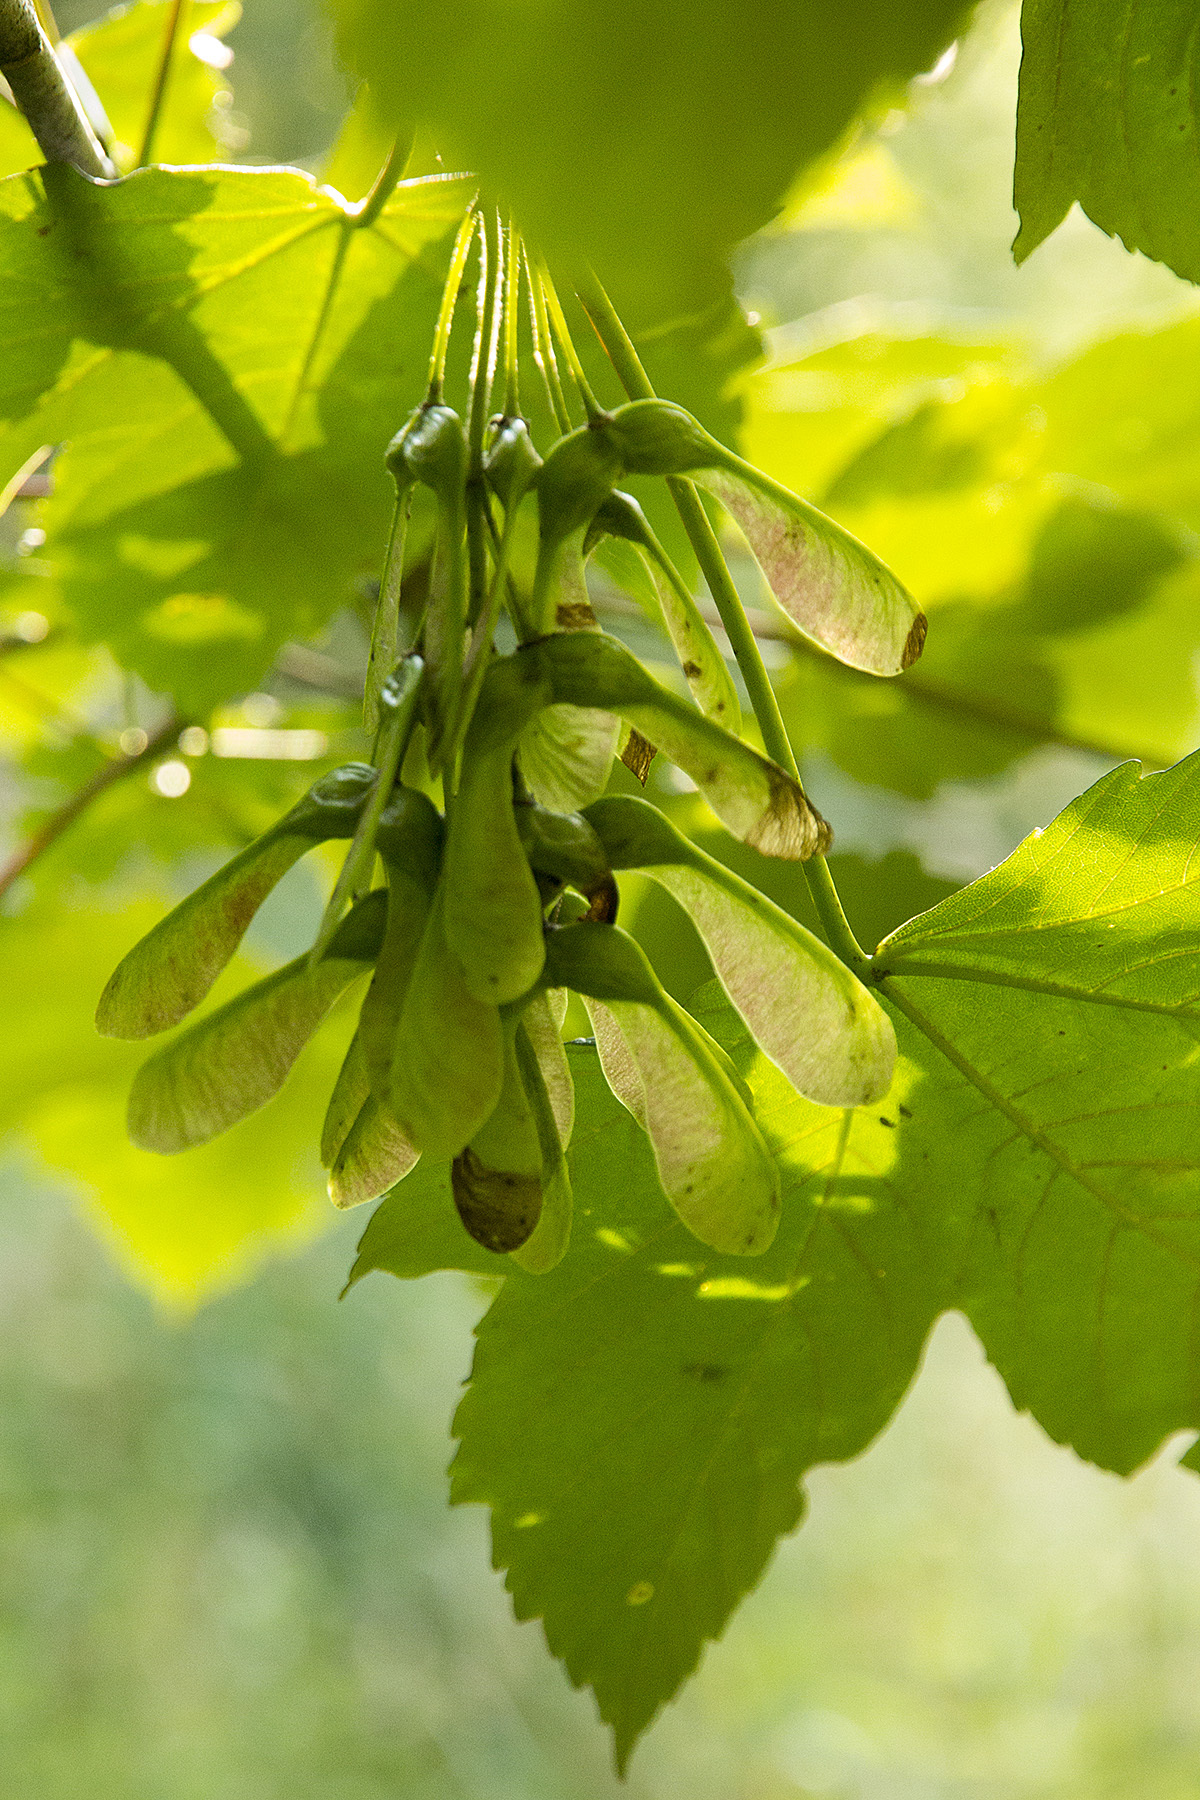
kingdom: Plantae
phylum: Tracheophyta
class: Magnoliopsida
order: Sapindales
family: Sapindaceae
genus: Acer
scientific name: Acer pseudoplatanus
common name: Sycamore
